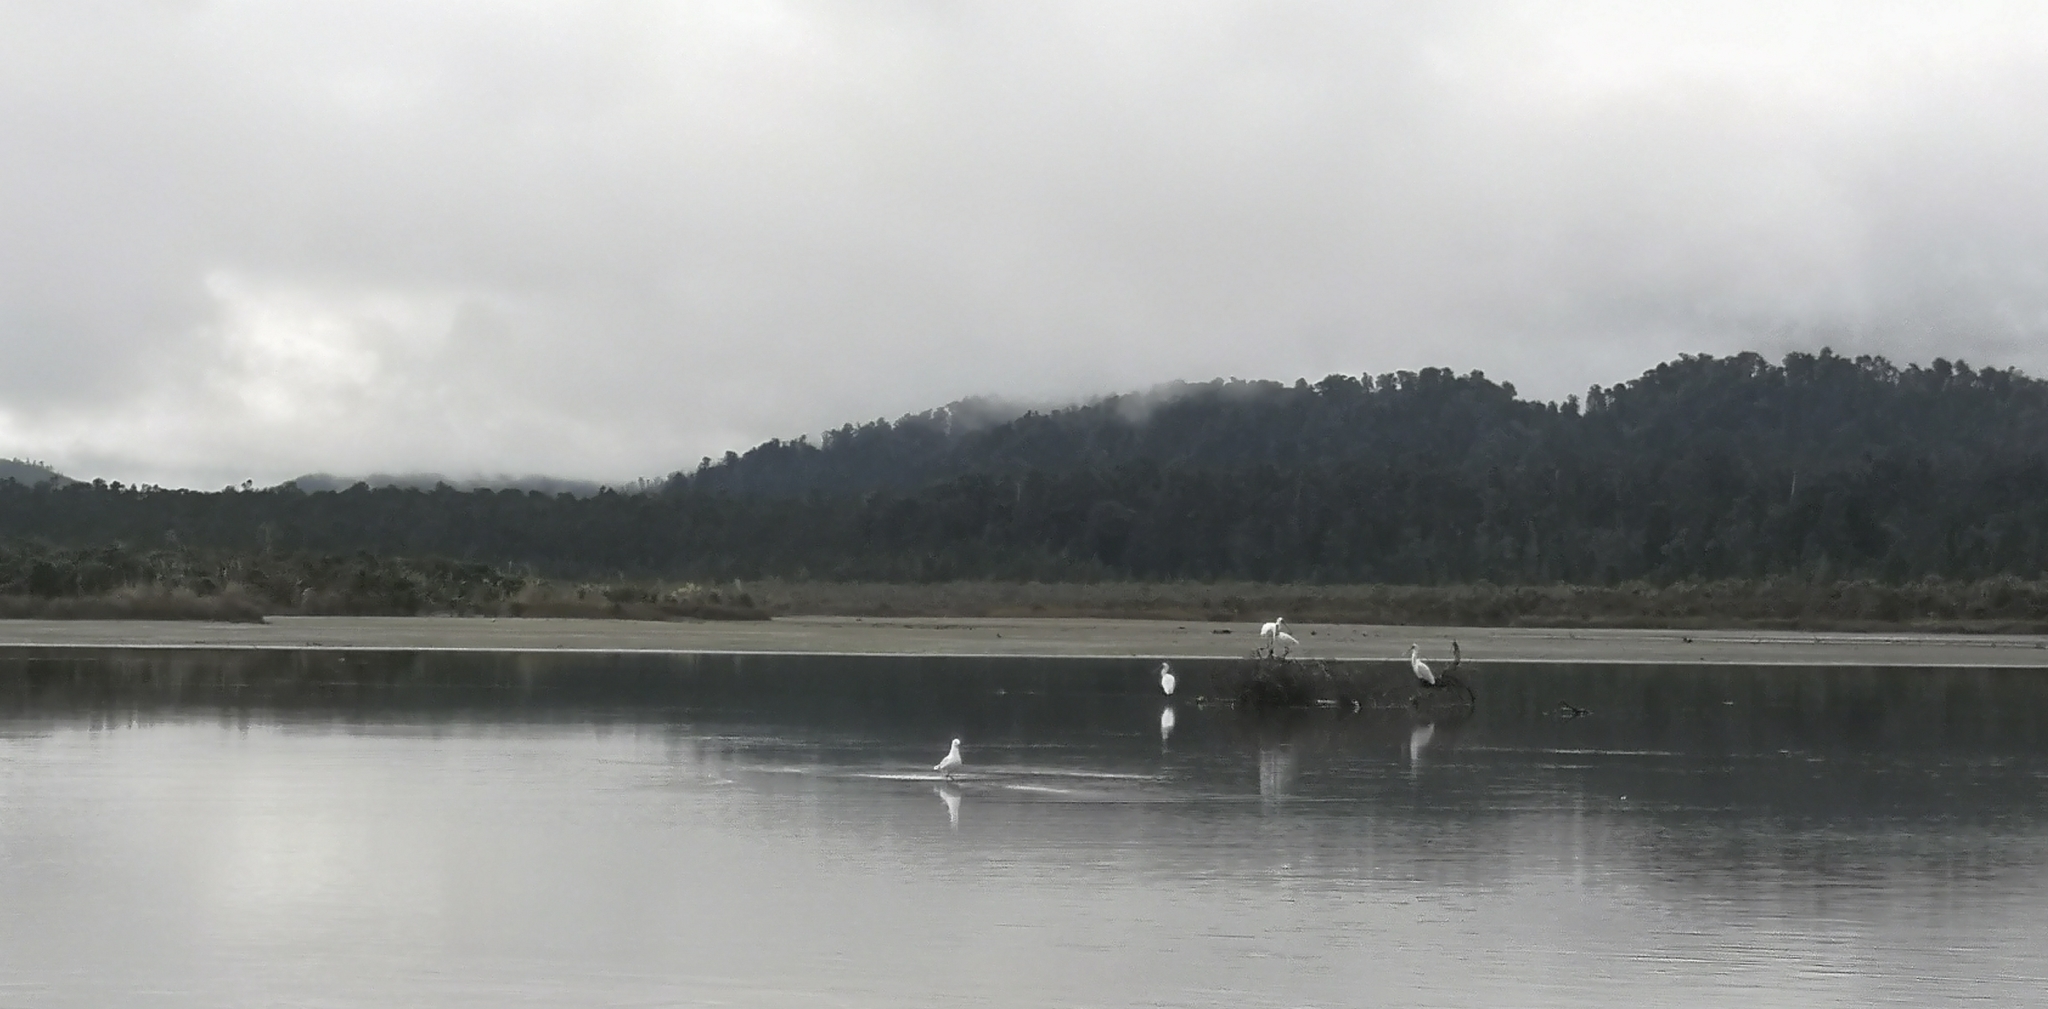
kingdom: Animalia
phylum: Chordata
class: Aves
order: Pelecaniformes
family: Threskiornithidae
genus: Platalea
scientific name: Platalea regia
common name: Royal spoonbill
